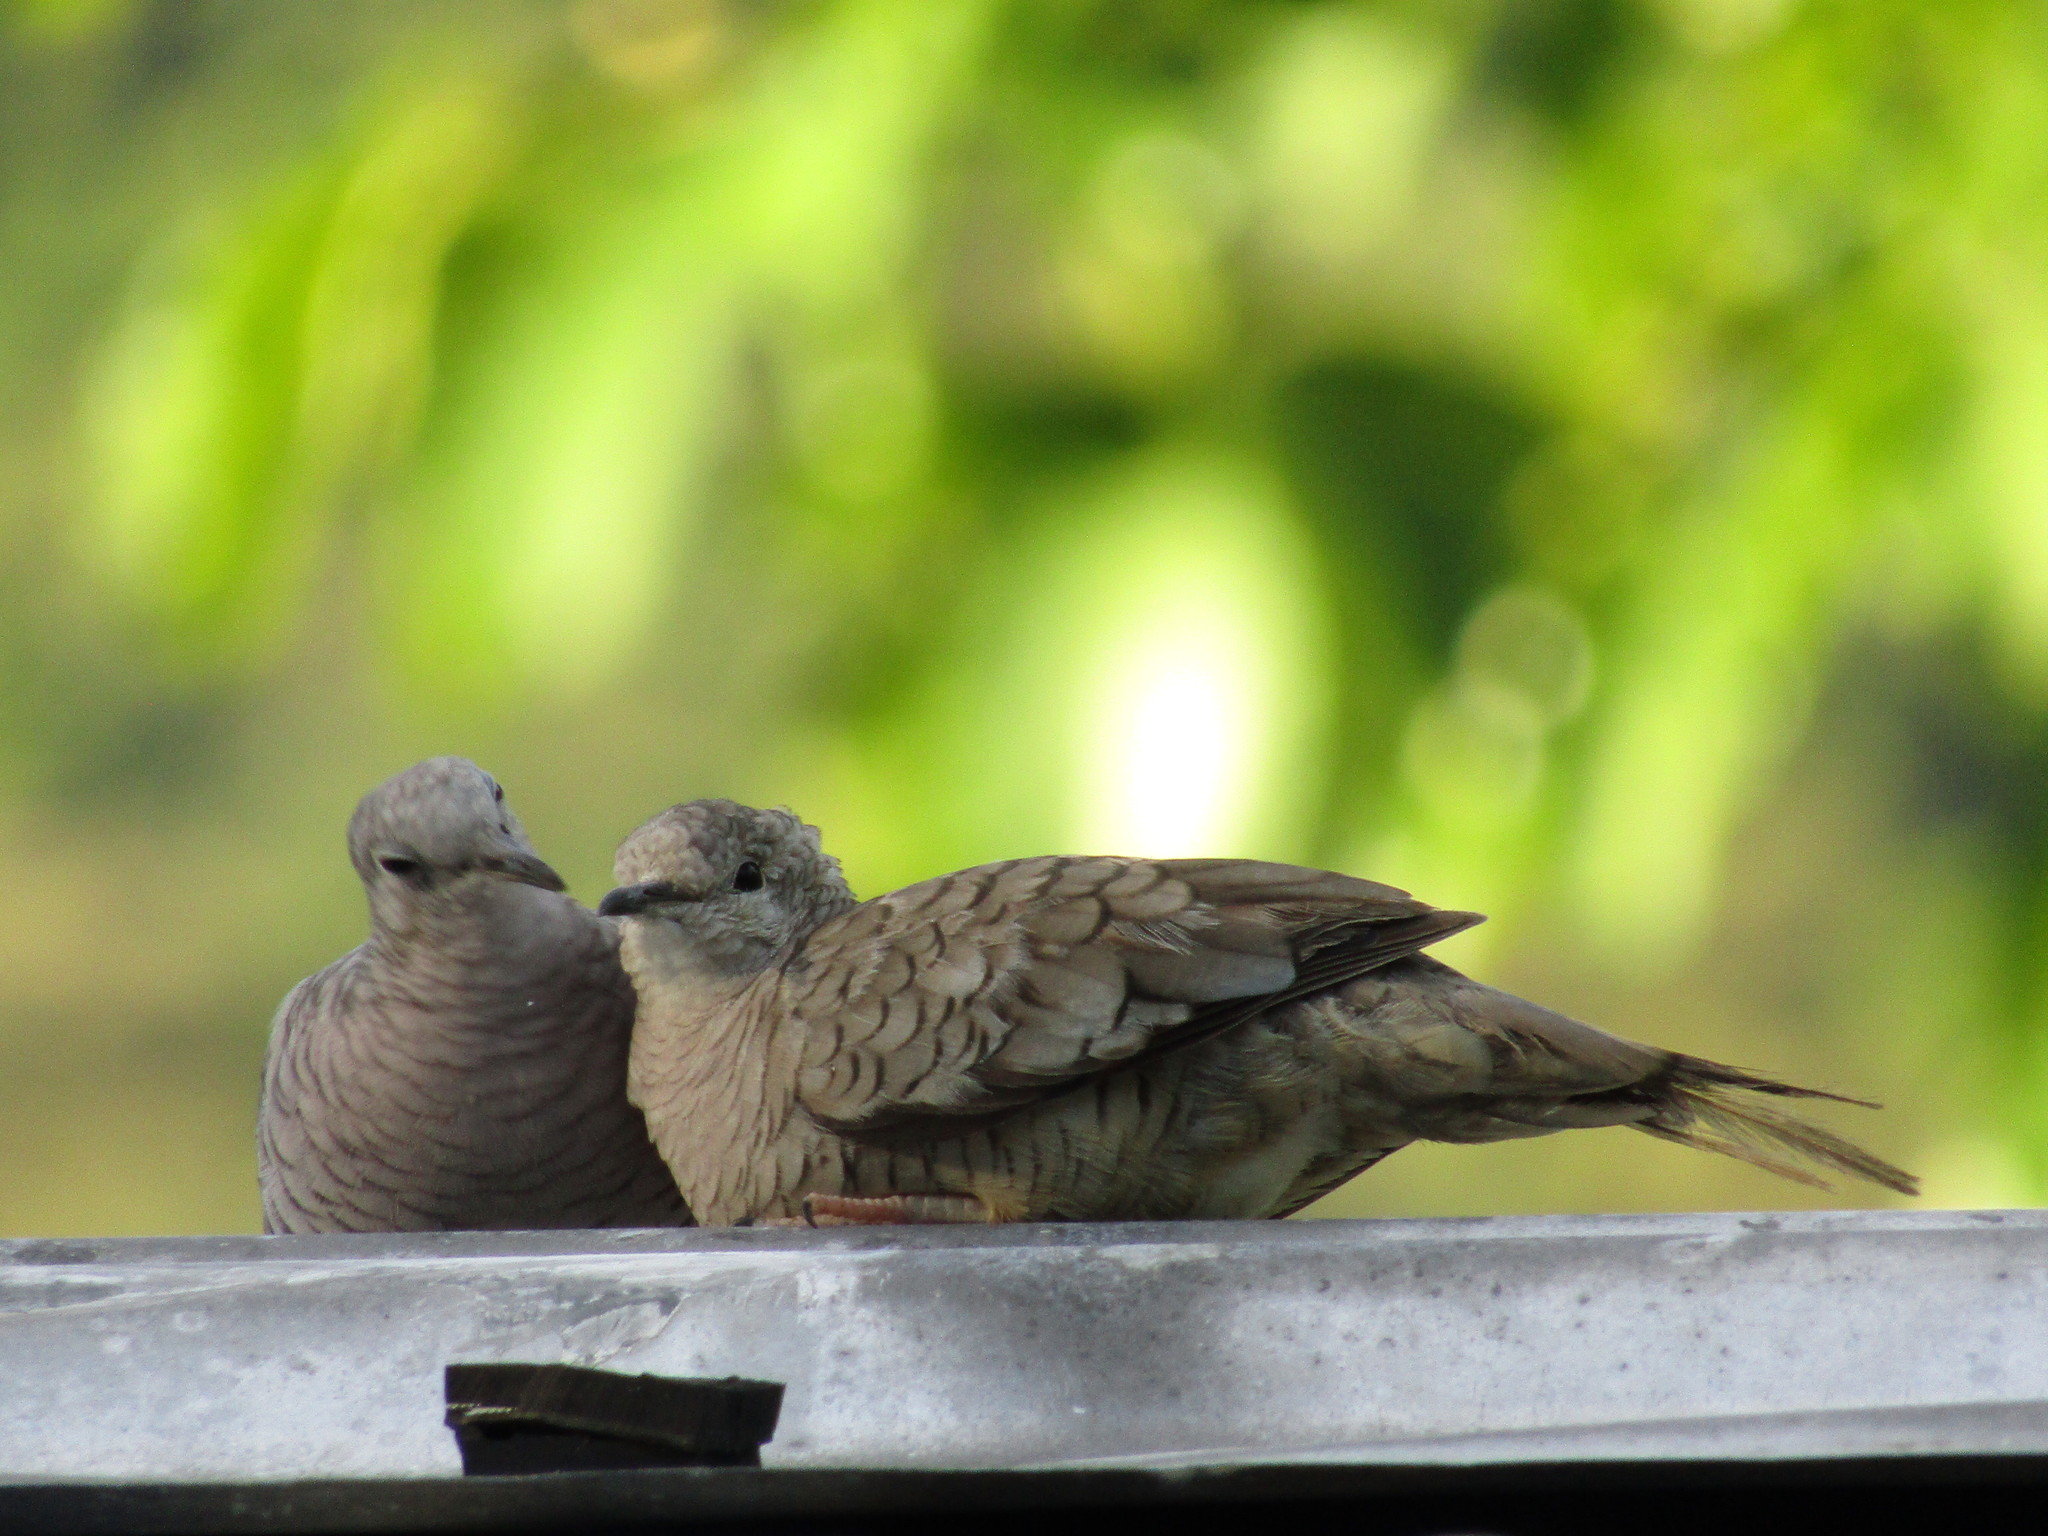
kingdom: Animalia
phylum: Chordata
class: Aves
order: Columbiformes
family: Columbidae
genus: Columbina
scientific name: Columbina inca
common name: Inca dove
